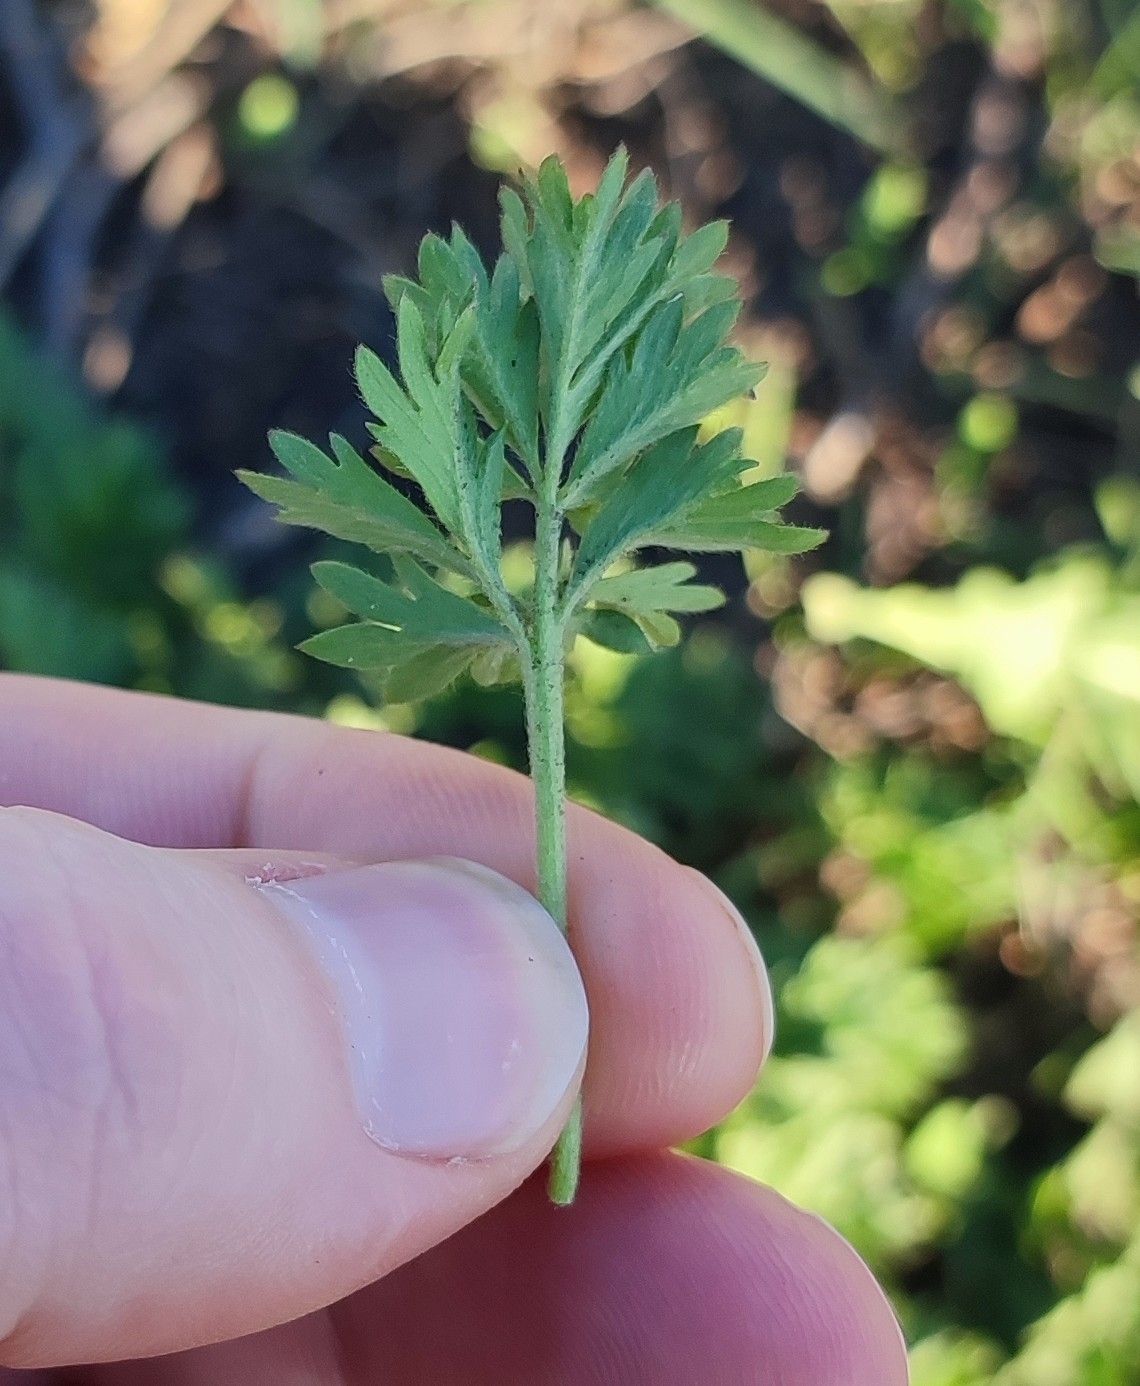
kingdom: Plantae
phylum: Tracheophyta
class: Magnoliopsida
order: Rosales
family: Rosaceae
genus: Potentilla
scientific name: Potentilla tobolensis
